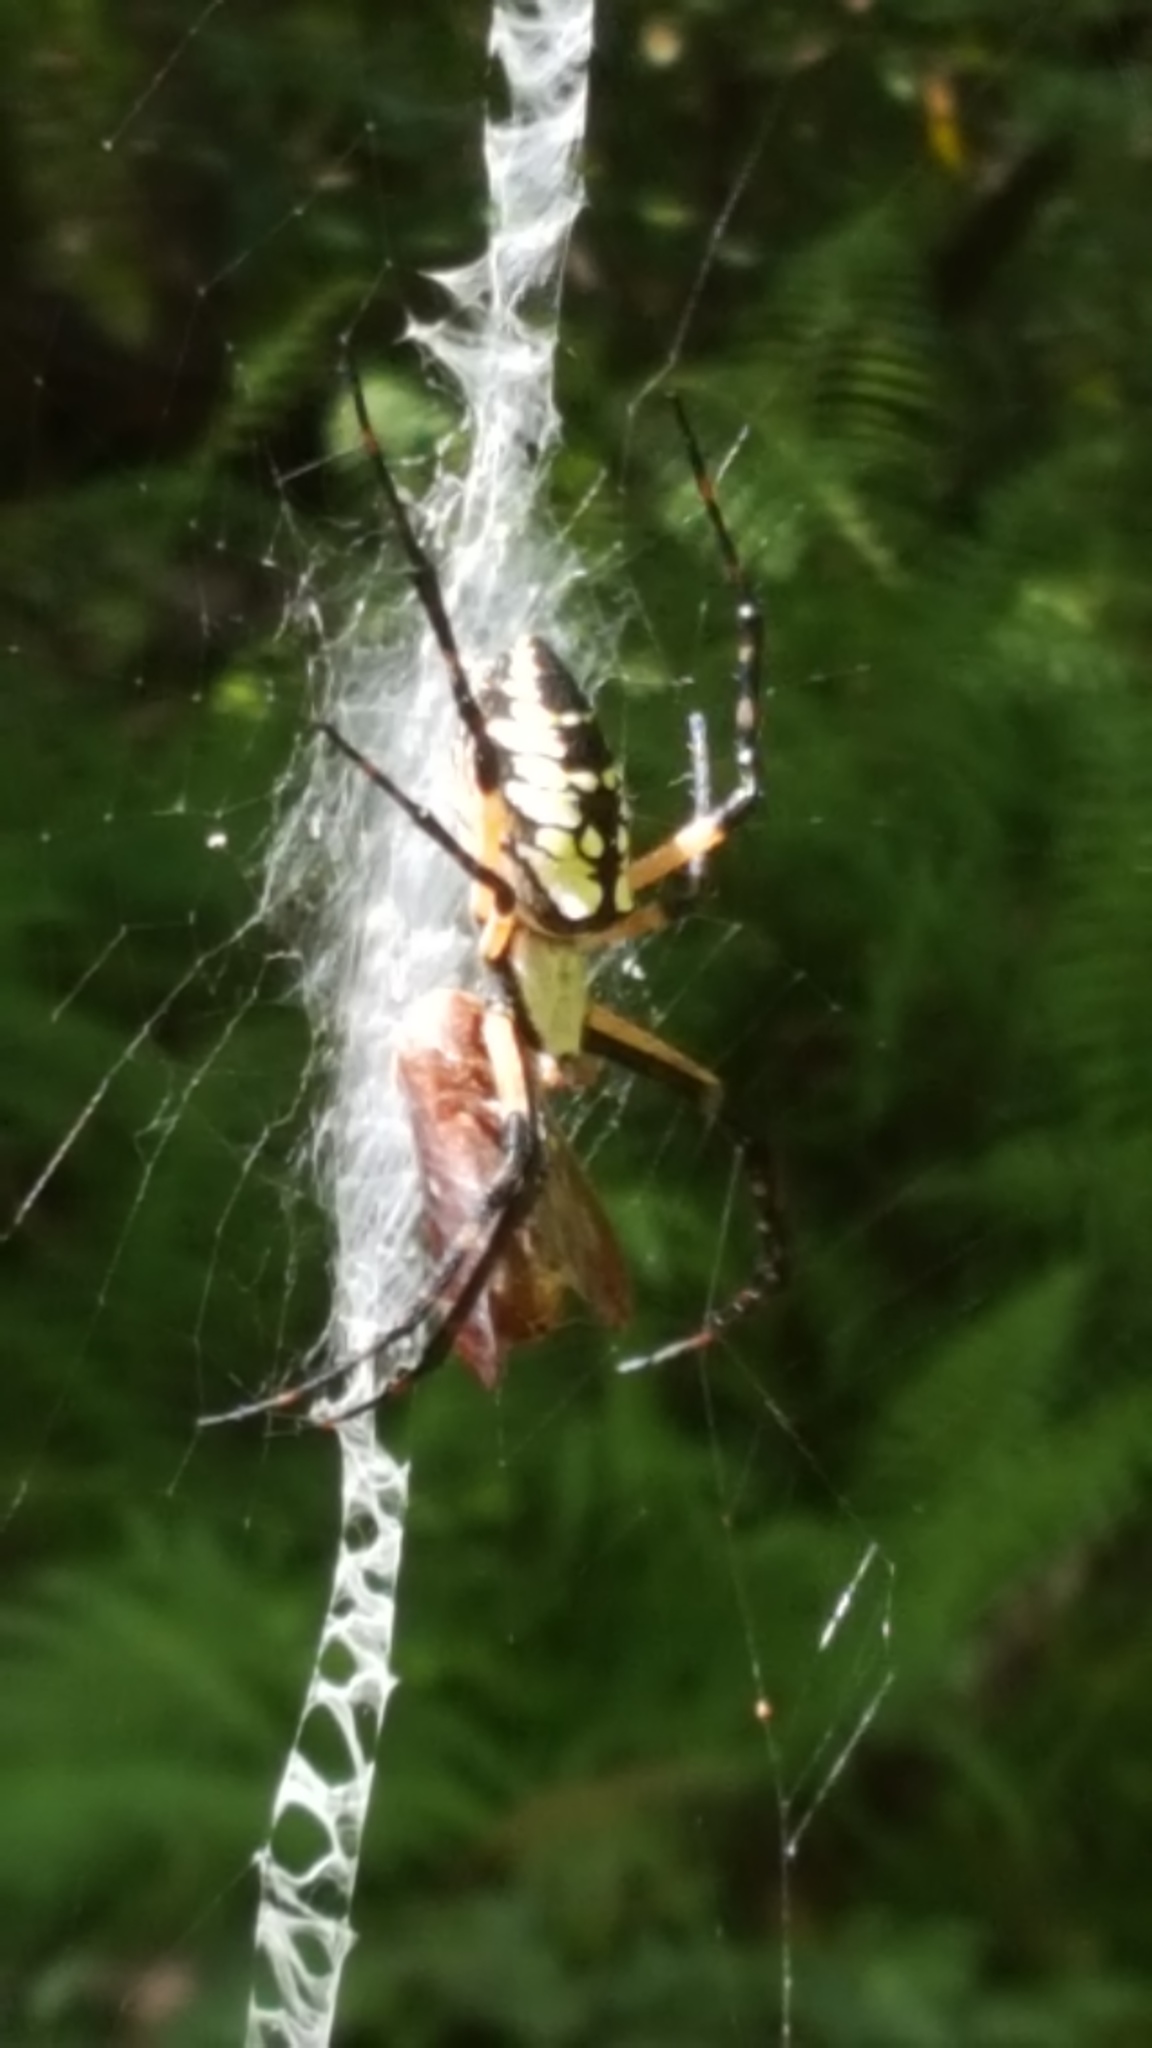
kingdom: Animalia
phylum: Arthropoda
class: Arachnida
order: Araneae
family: Araneidae
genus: Argiope
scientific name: Argiope aurantia
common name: Orb weavers
